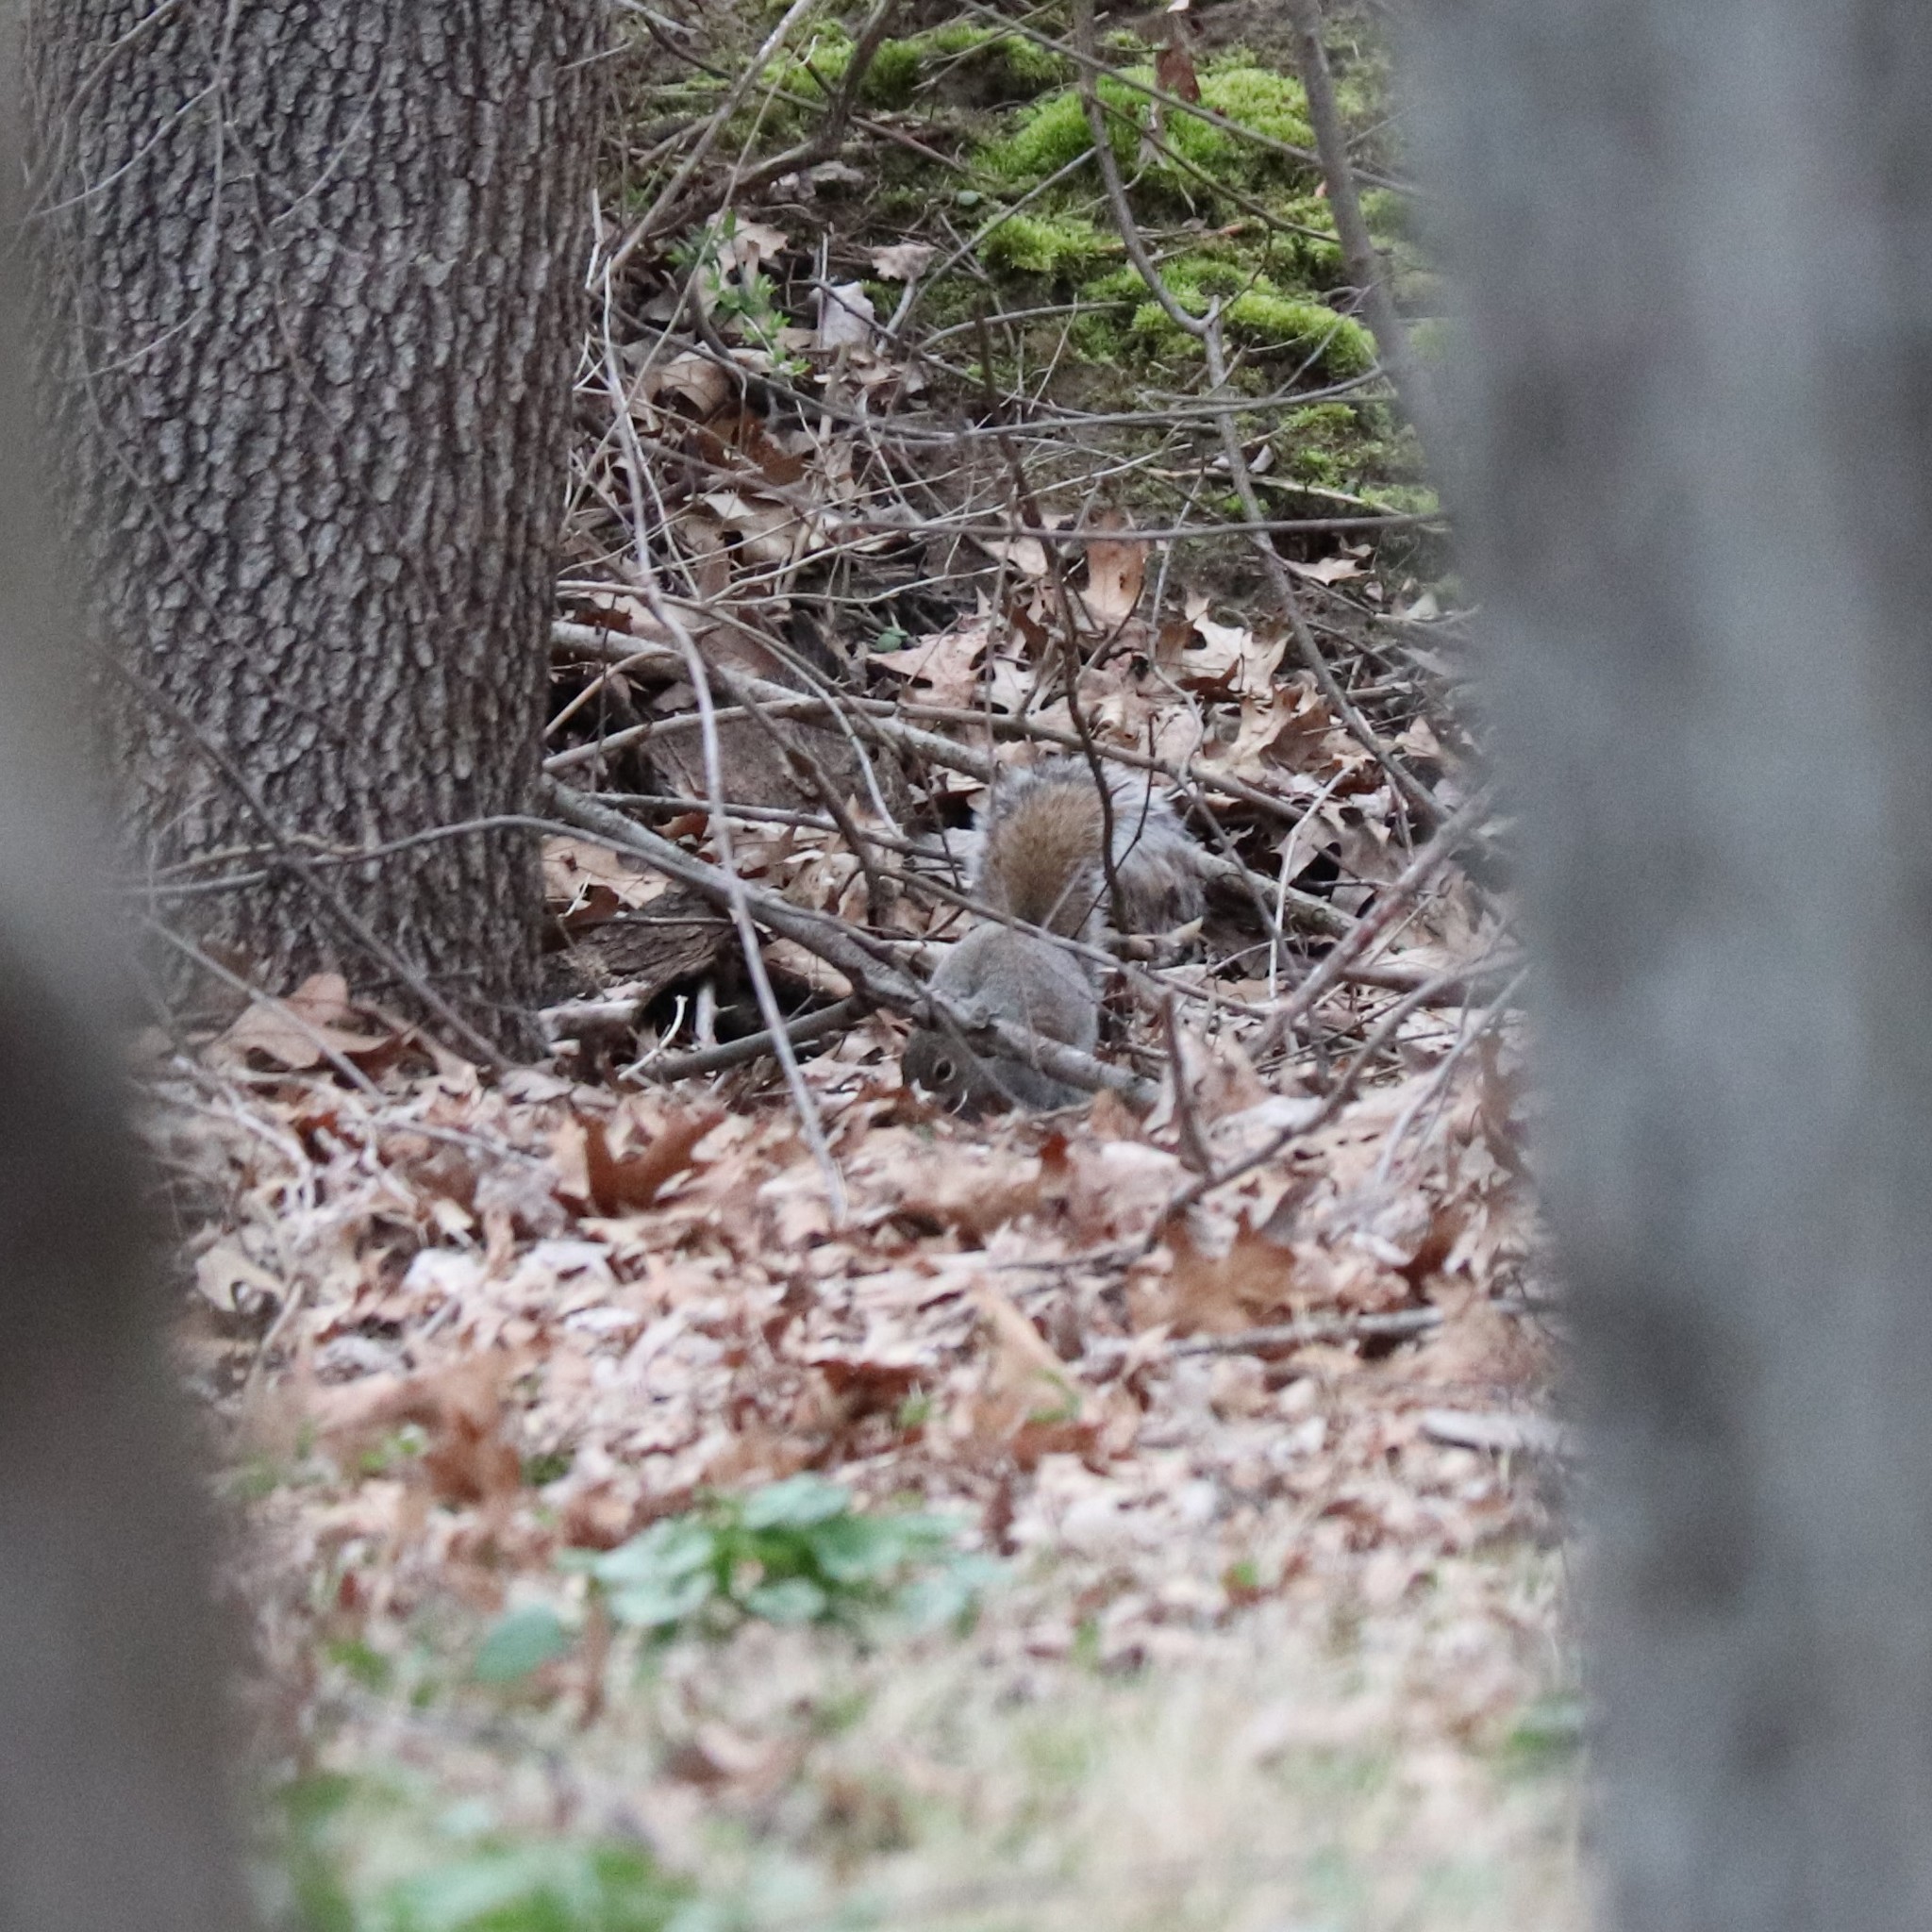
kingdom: Animalia
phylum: Chordata
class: Mammalia
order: Rodentia
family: Sciuridae
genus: Sciurus
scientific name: Sciurus carolinensis
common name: Eastern gray squirrel
